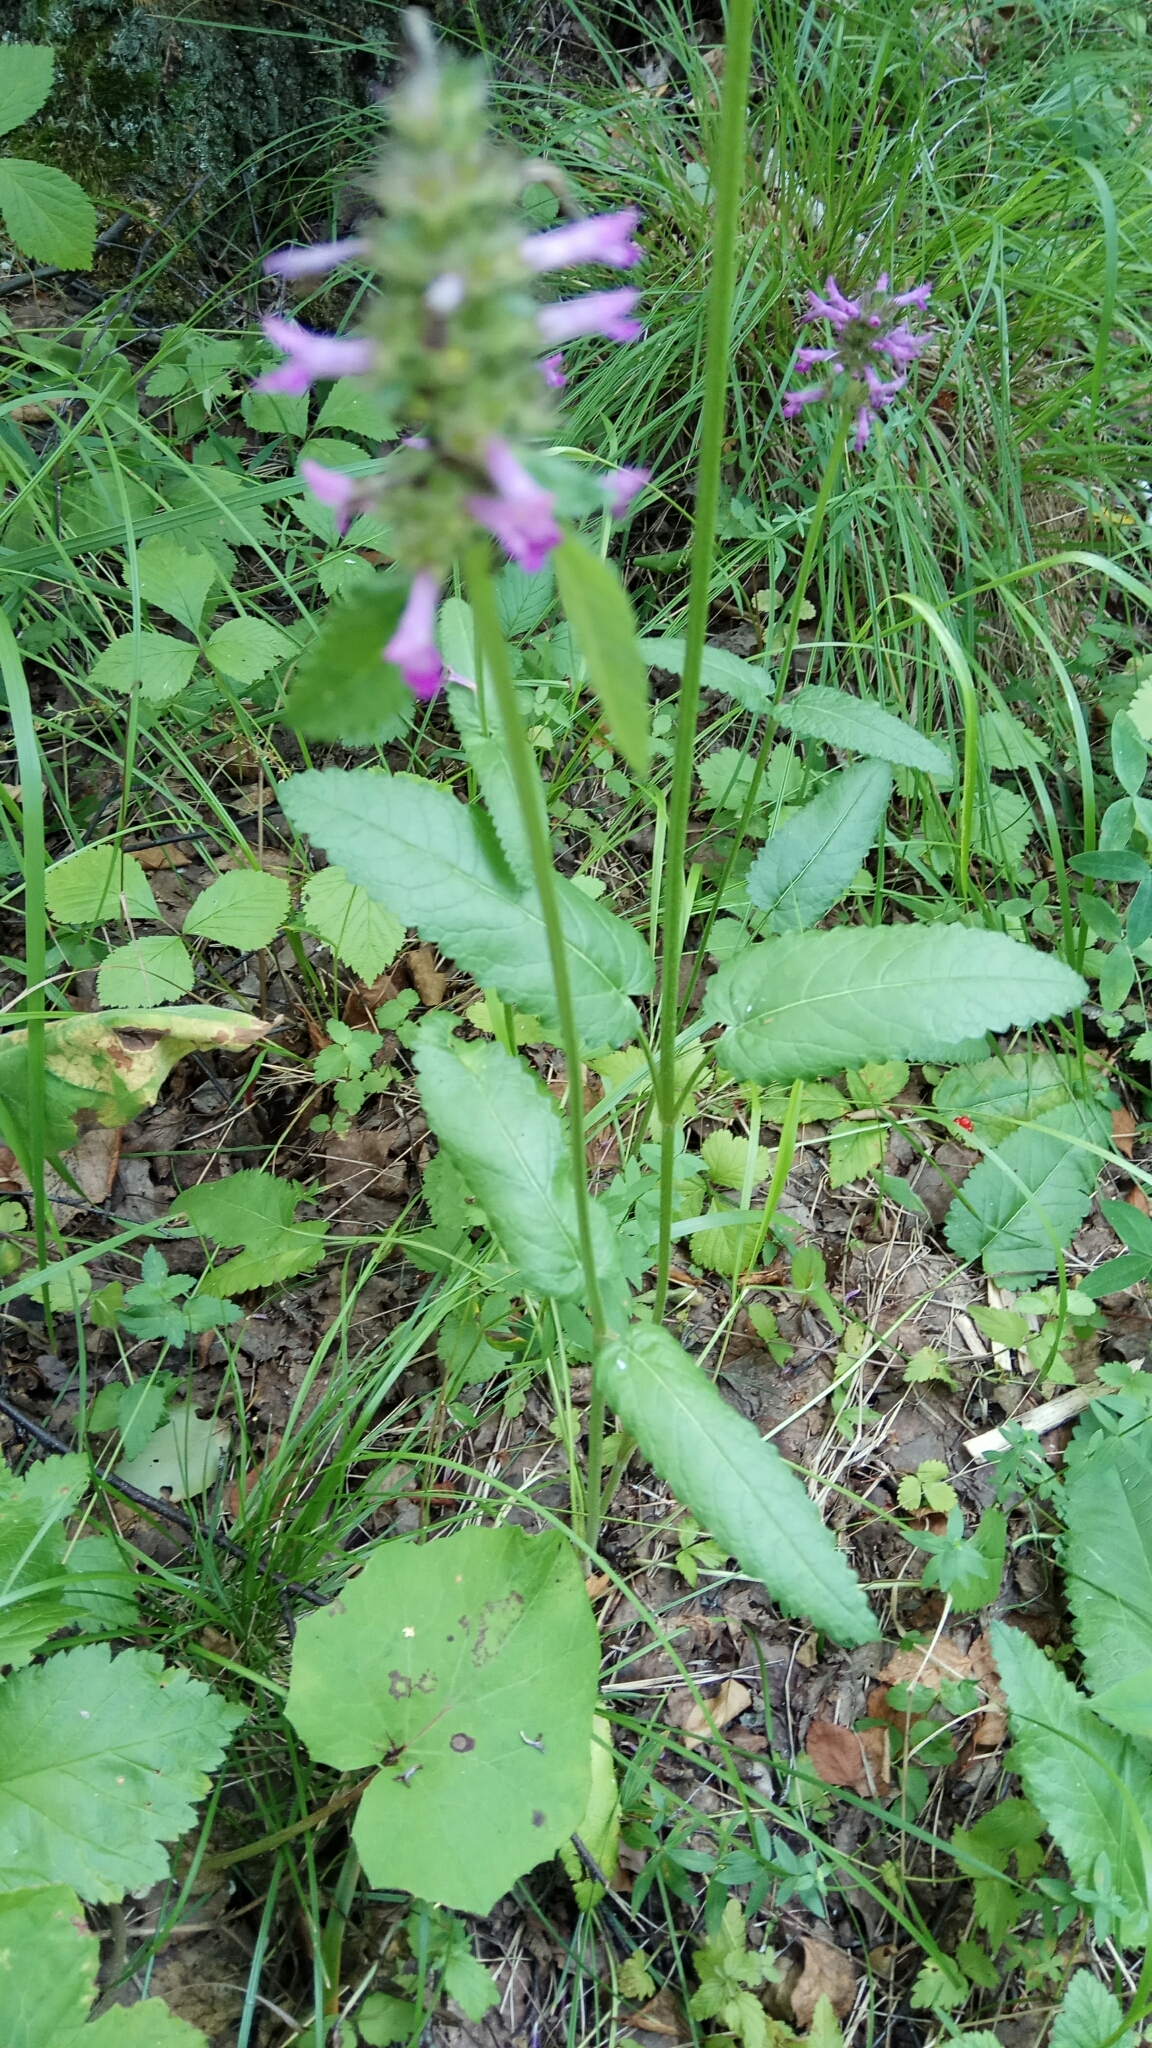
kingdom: Plantae
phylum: Tracheophyta
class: Magnoliopsida
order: Lamiales
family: Lamiaceae
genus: Betonica
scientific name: Betonica officinalis
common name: Bishop's-wort
